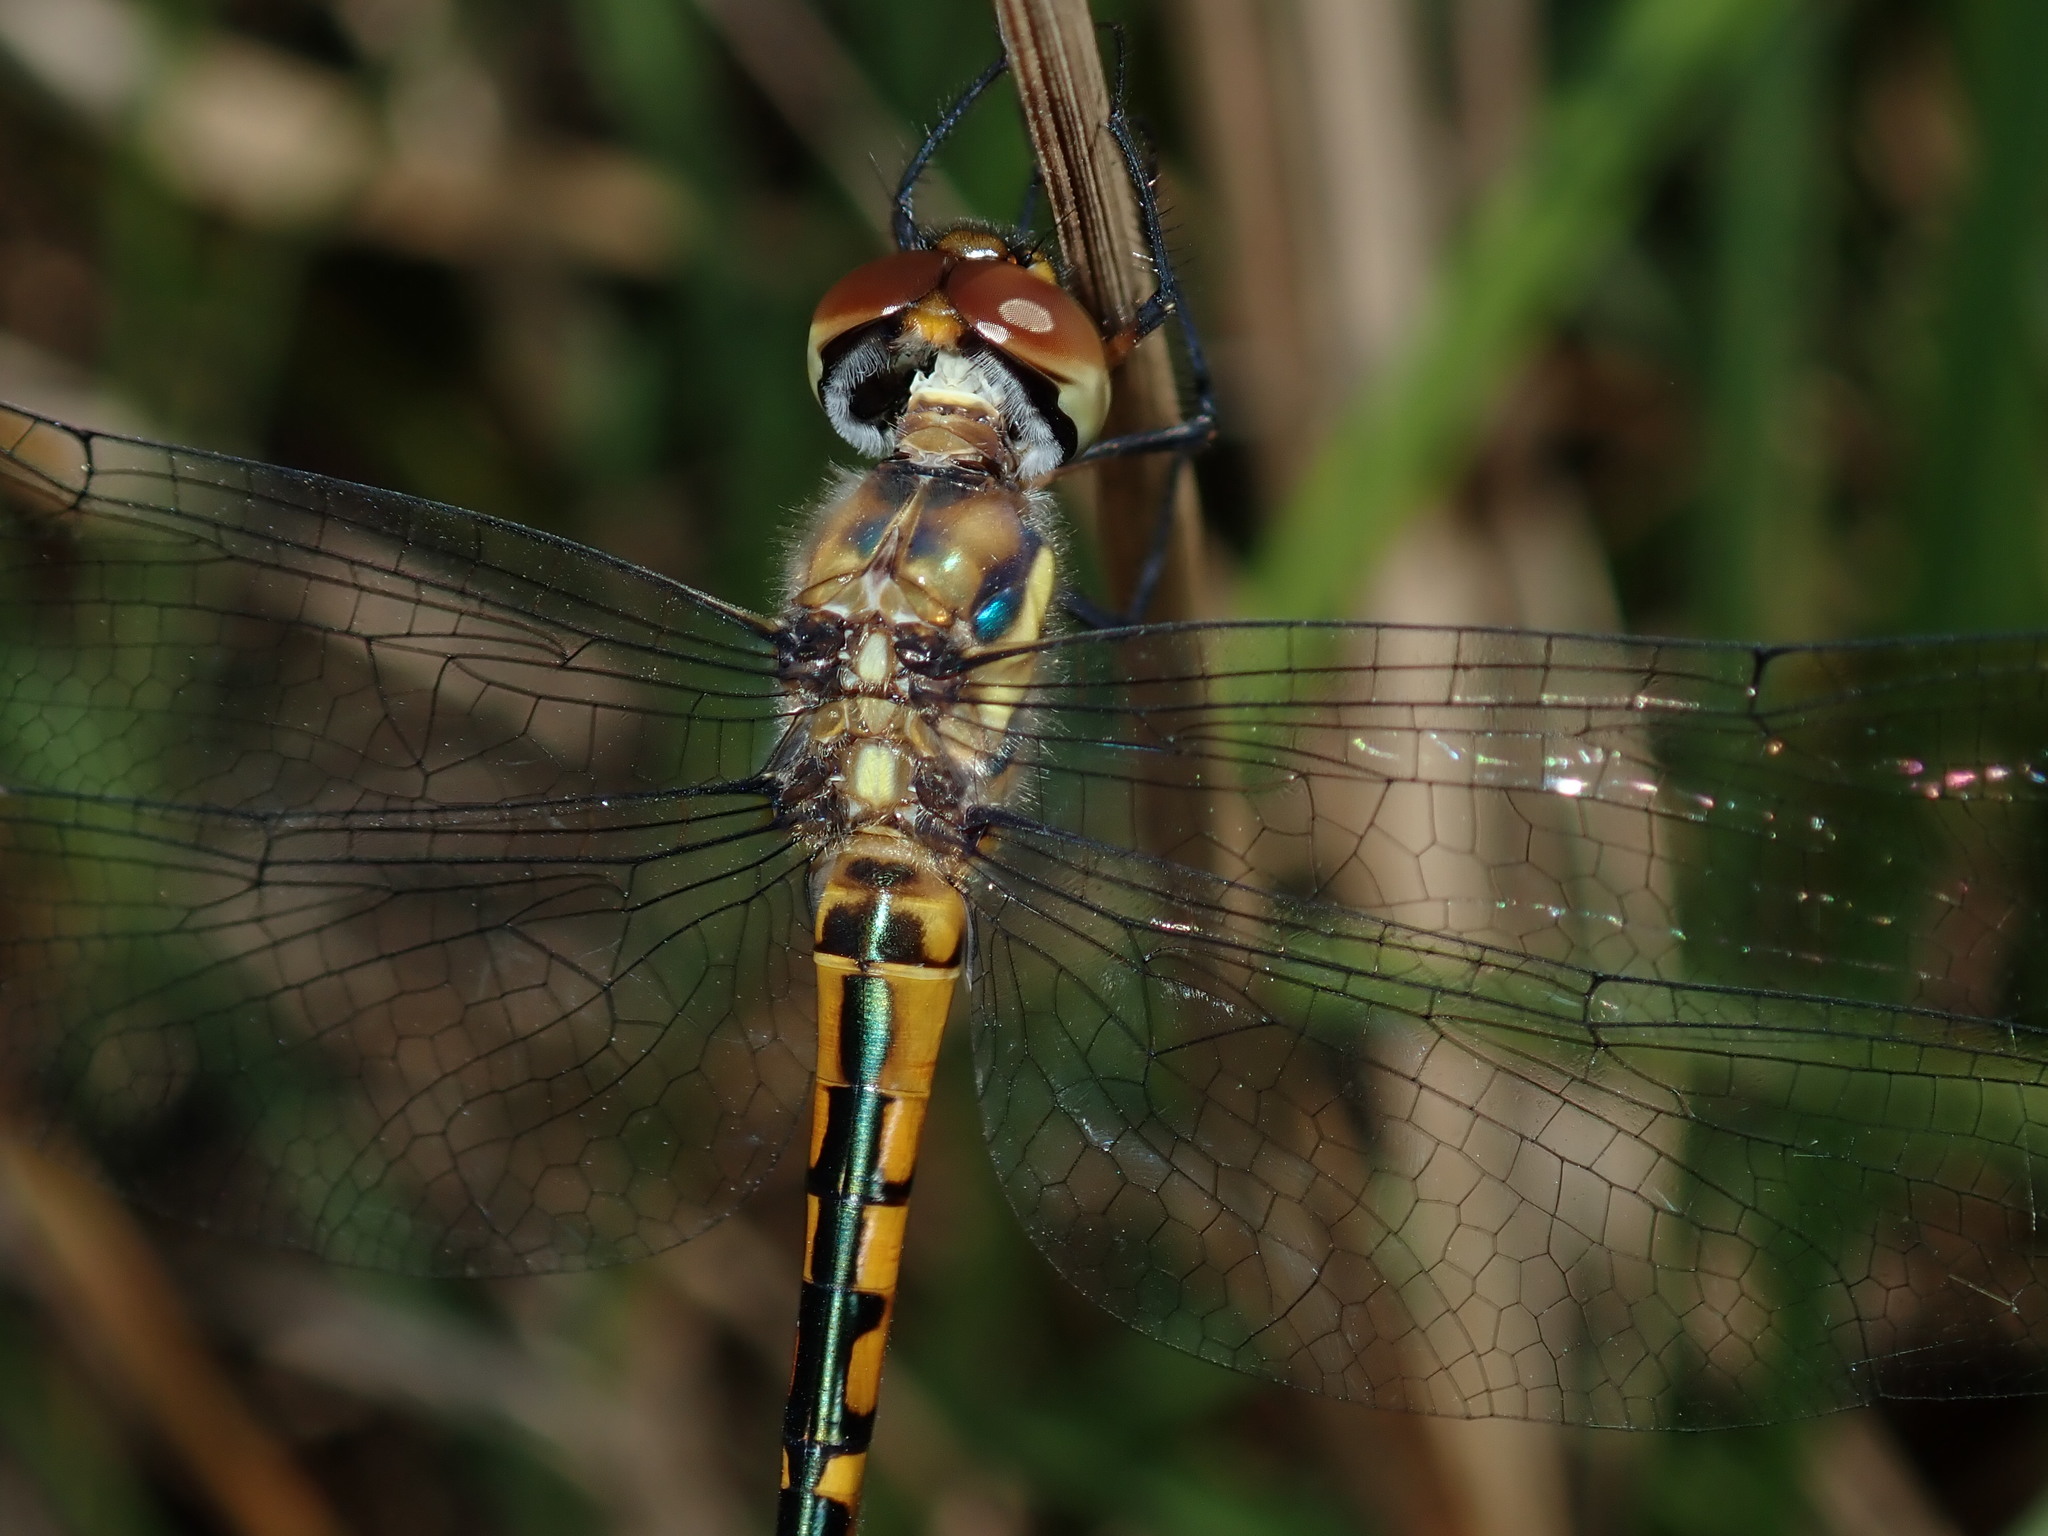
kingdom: Animalia
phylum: Arthropoda
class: Insecta
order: Odonata
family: Corduliidae
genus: Hemicordulia
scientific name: Hemicordulia australiae
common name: Sentry dragonfly
